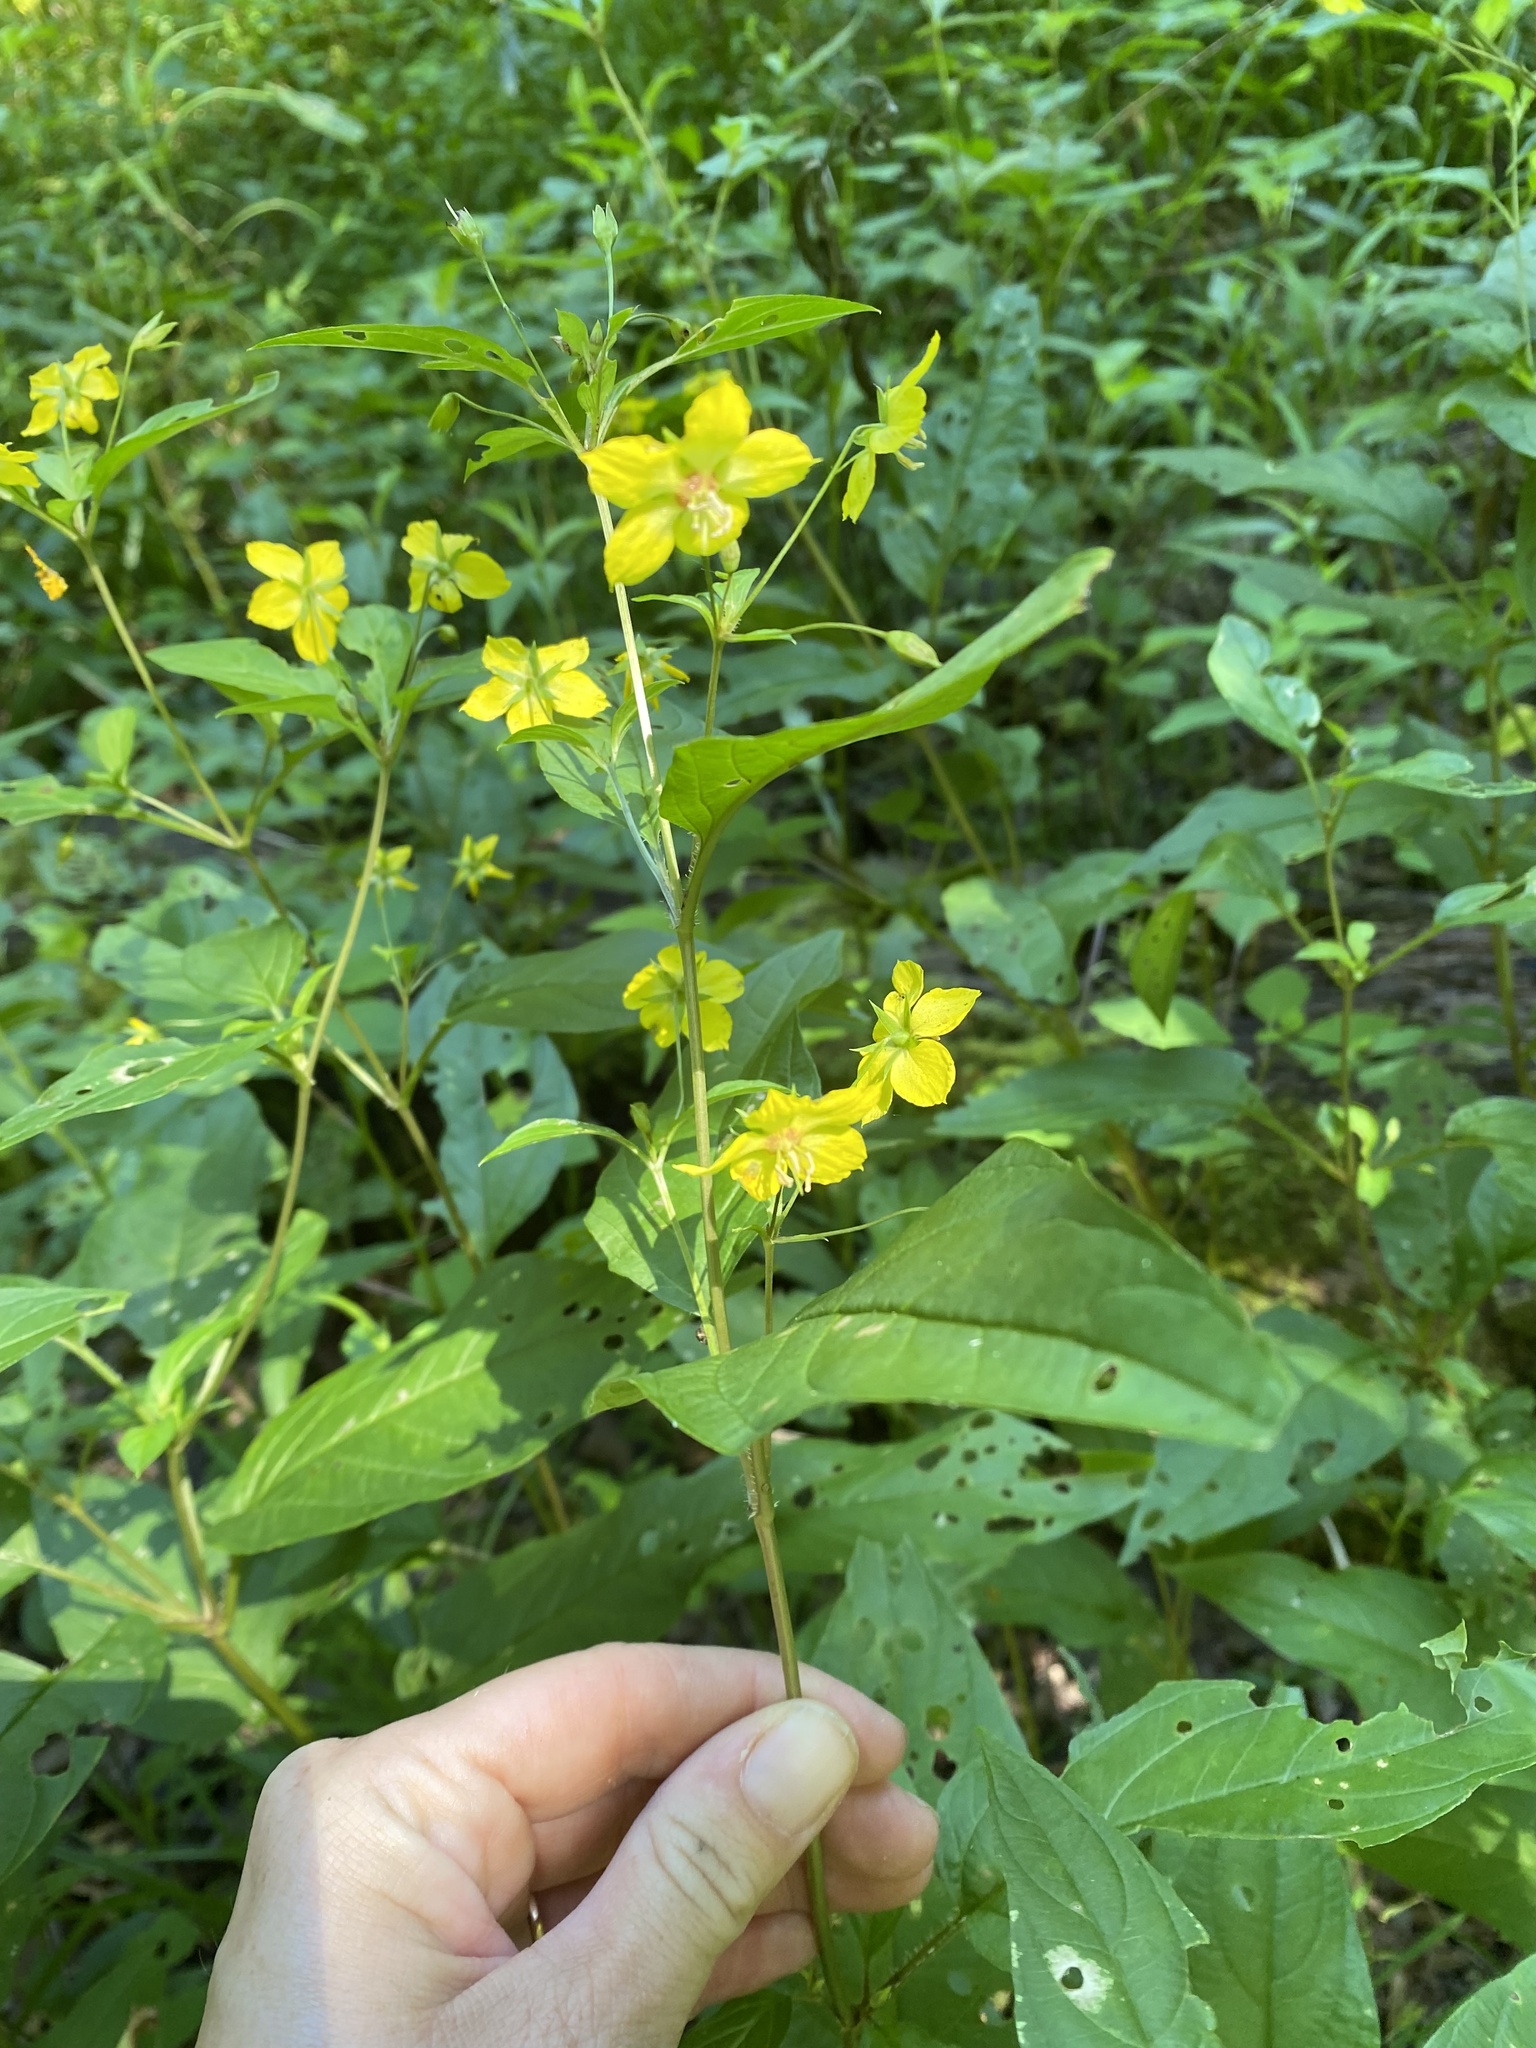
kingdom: Plantae
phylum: Tracheophyta
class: Magnoliopsida
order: Ericales
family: Primulaceae
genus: Lysimachia
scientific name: Lysimachia ciliata
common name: Fringed loosestrife
